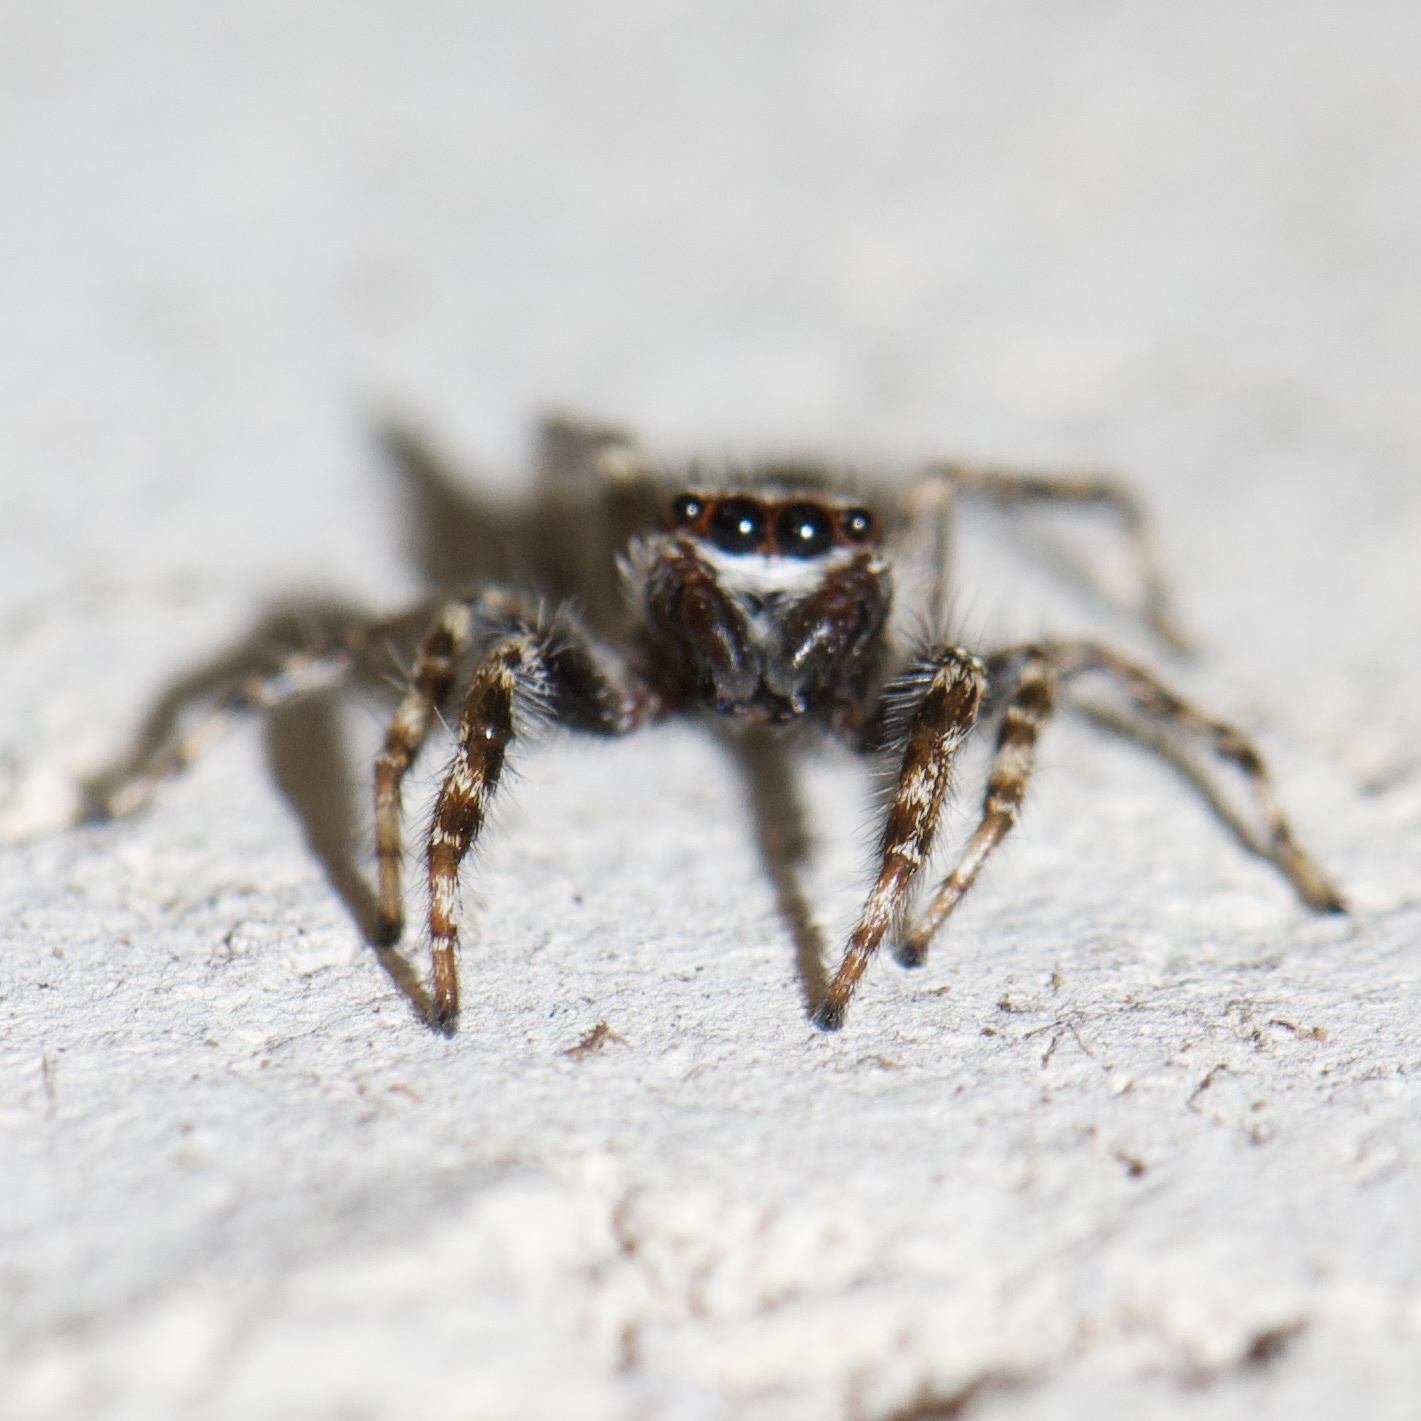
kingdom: Animalia
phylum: Arthropoda
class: Arachnida
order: Araneae
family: Salticidae
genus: Menemerus
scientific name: Menemerus bivittatus
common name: Gray wall jumper
